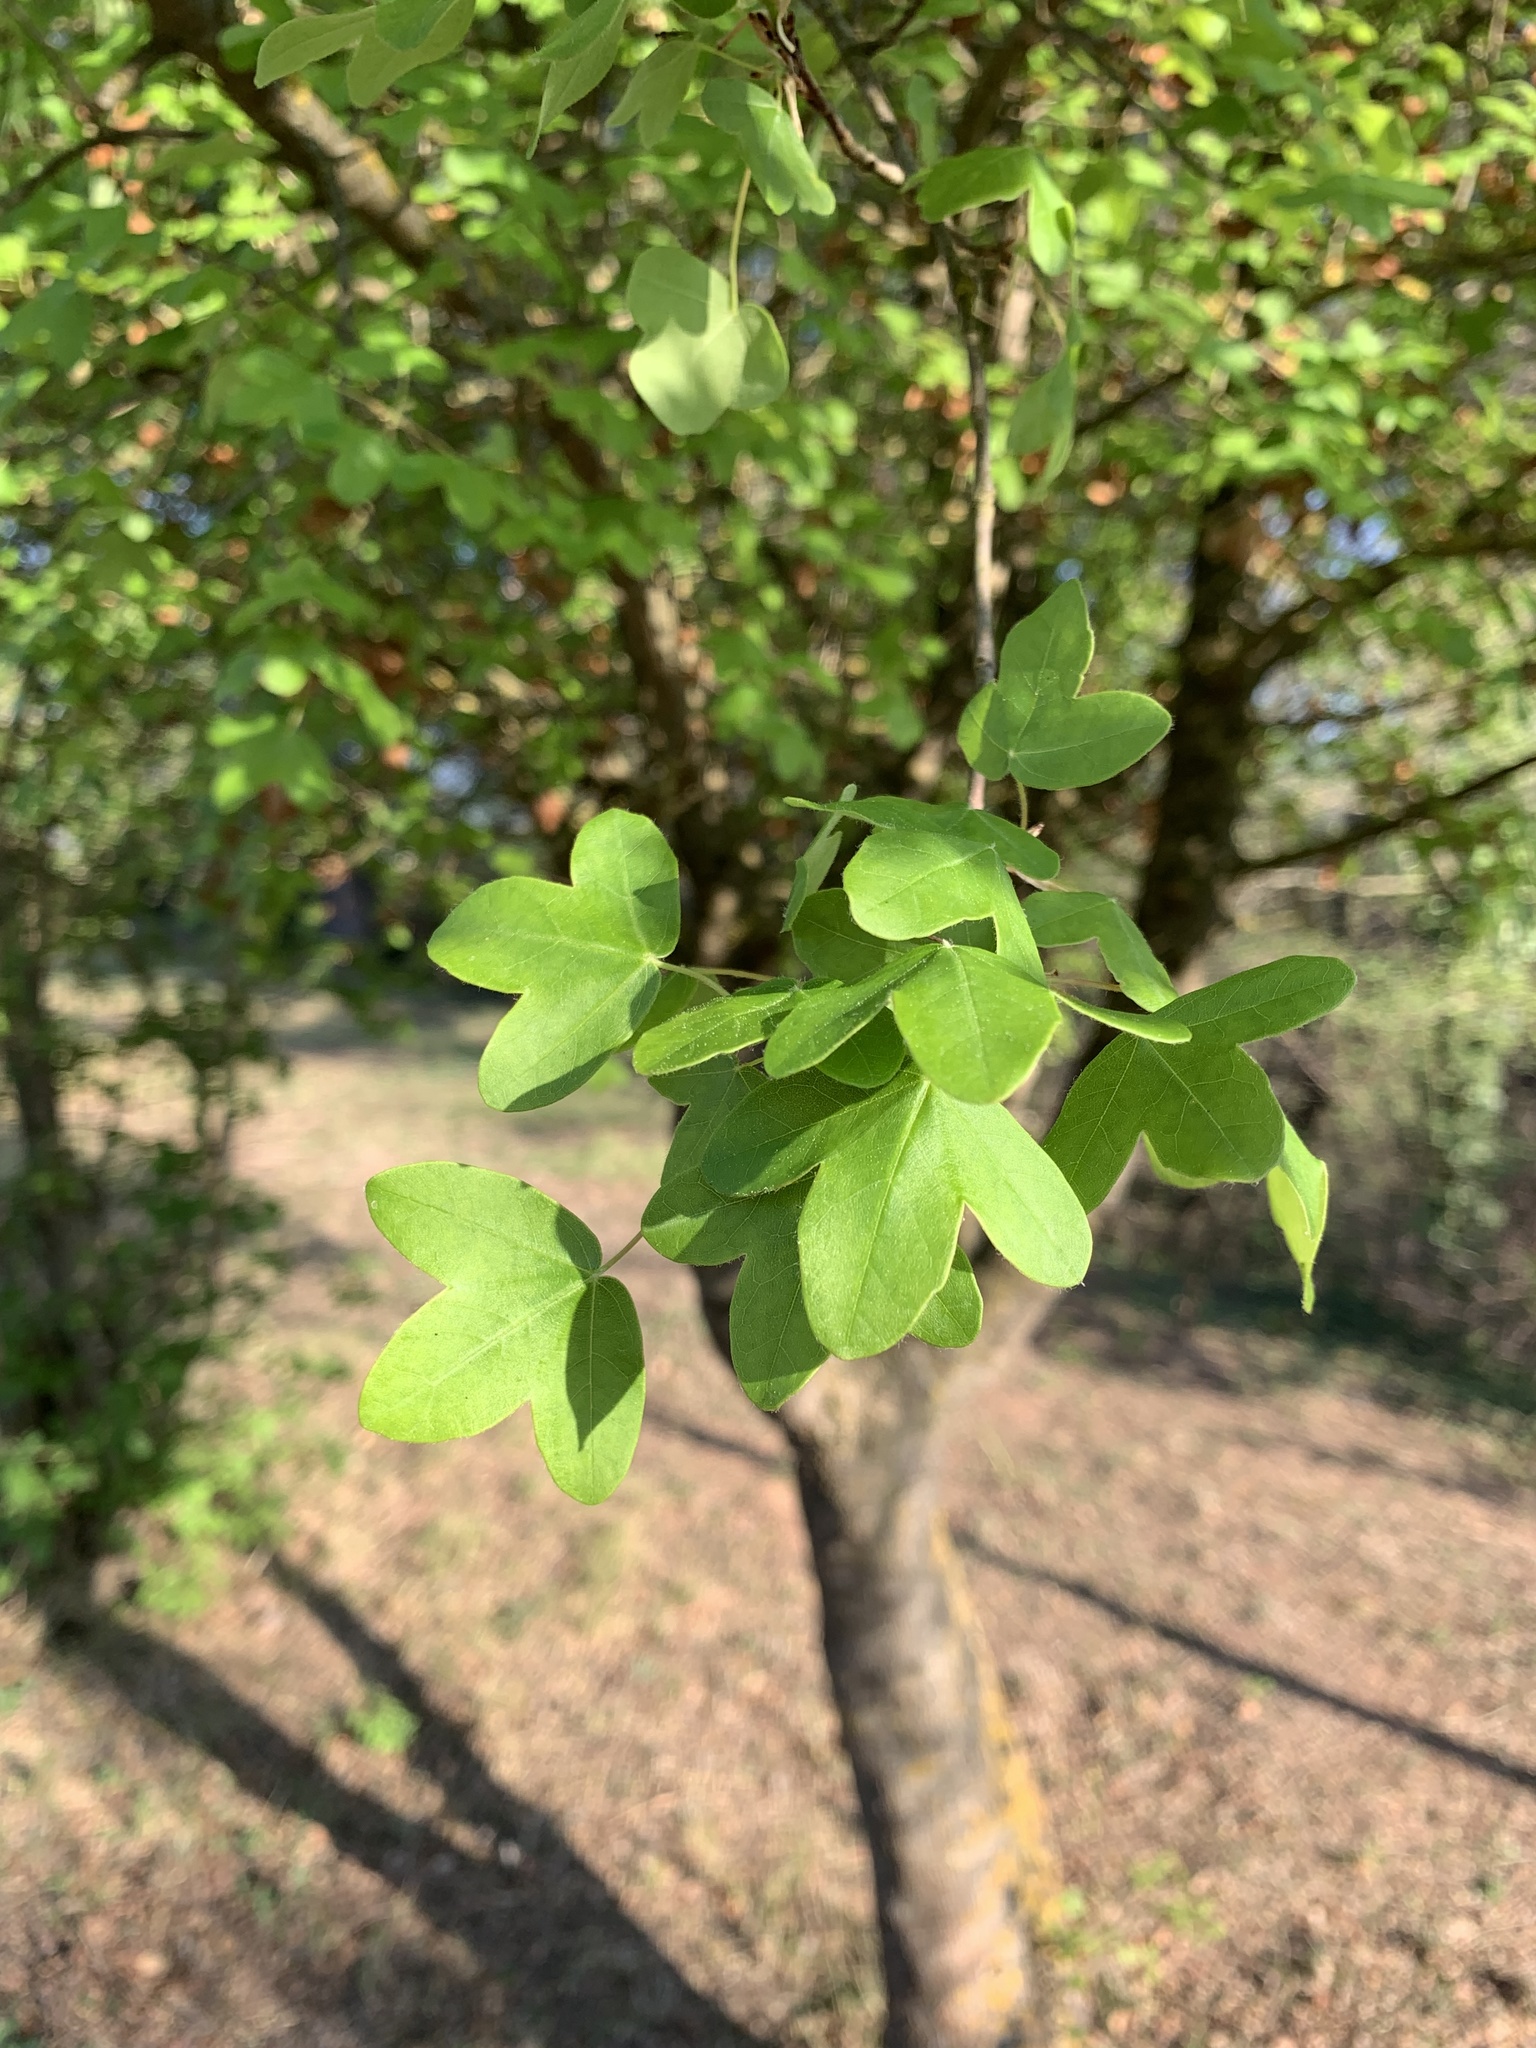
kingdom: Plantae
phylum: Tracheophyta
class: Magnoliopsida
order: Sapindales
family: Sapindaceae
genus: Acer
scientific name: Acer monspessulanum
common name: Montpellier maple
